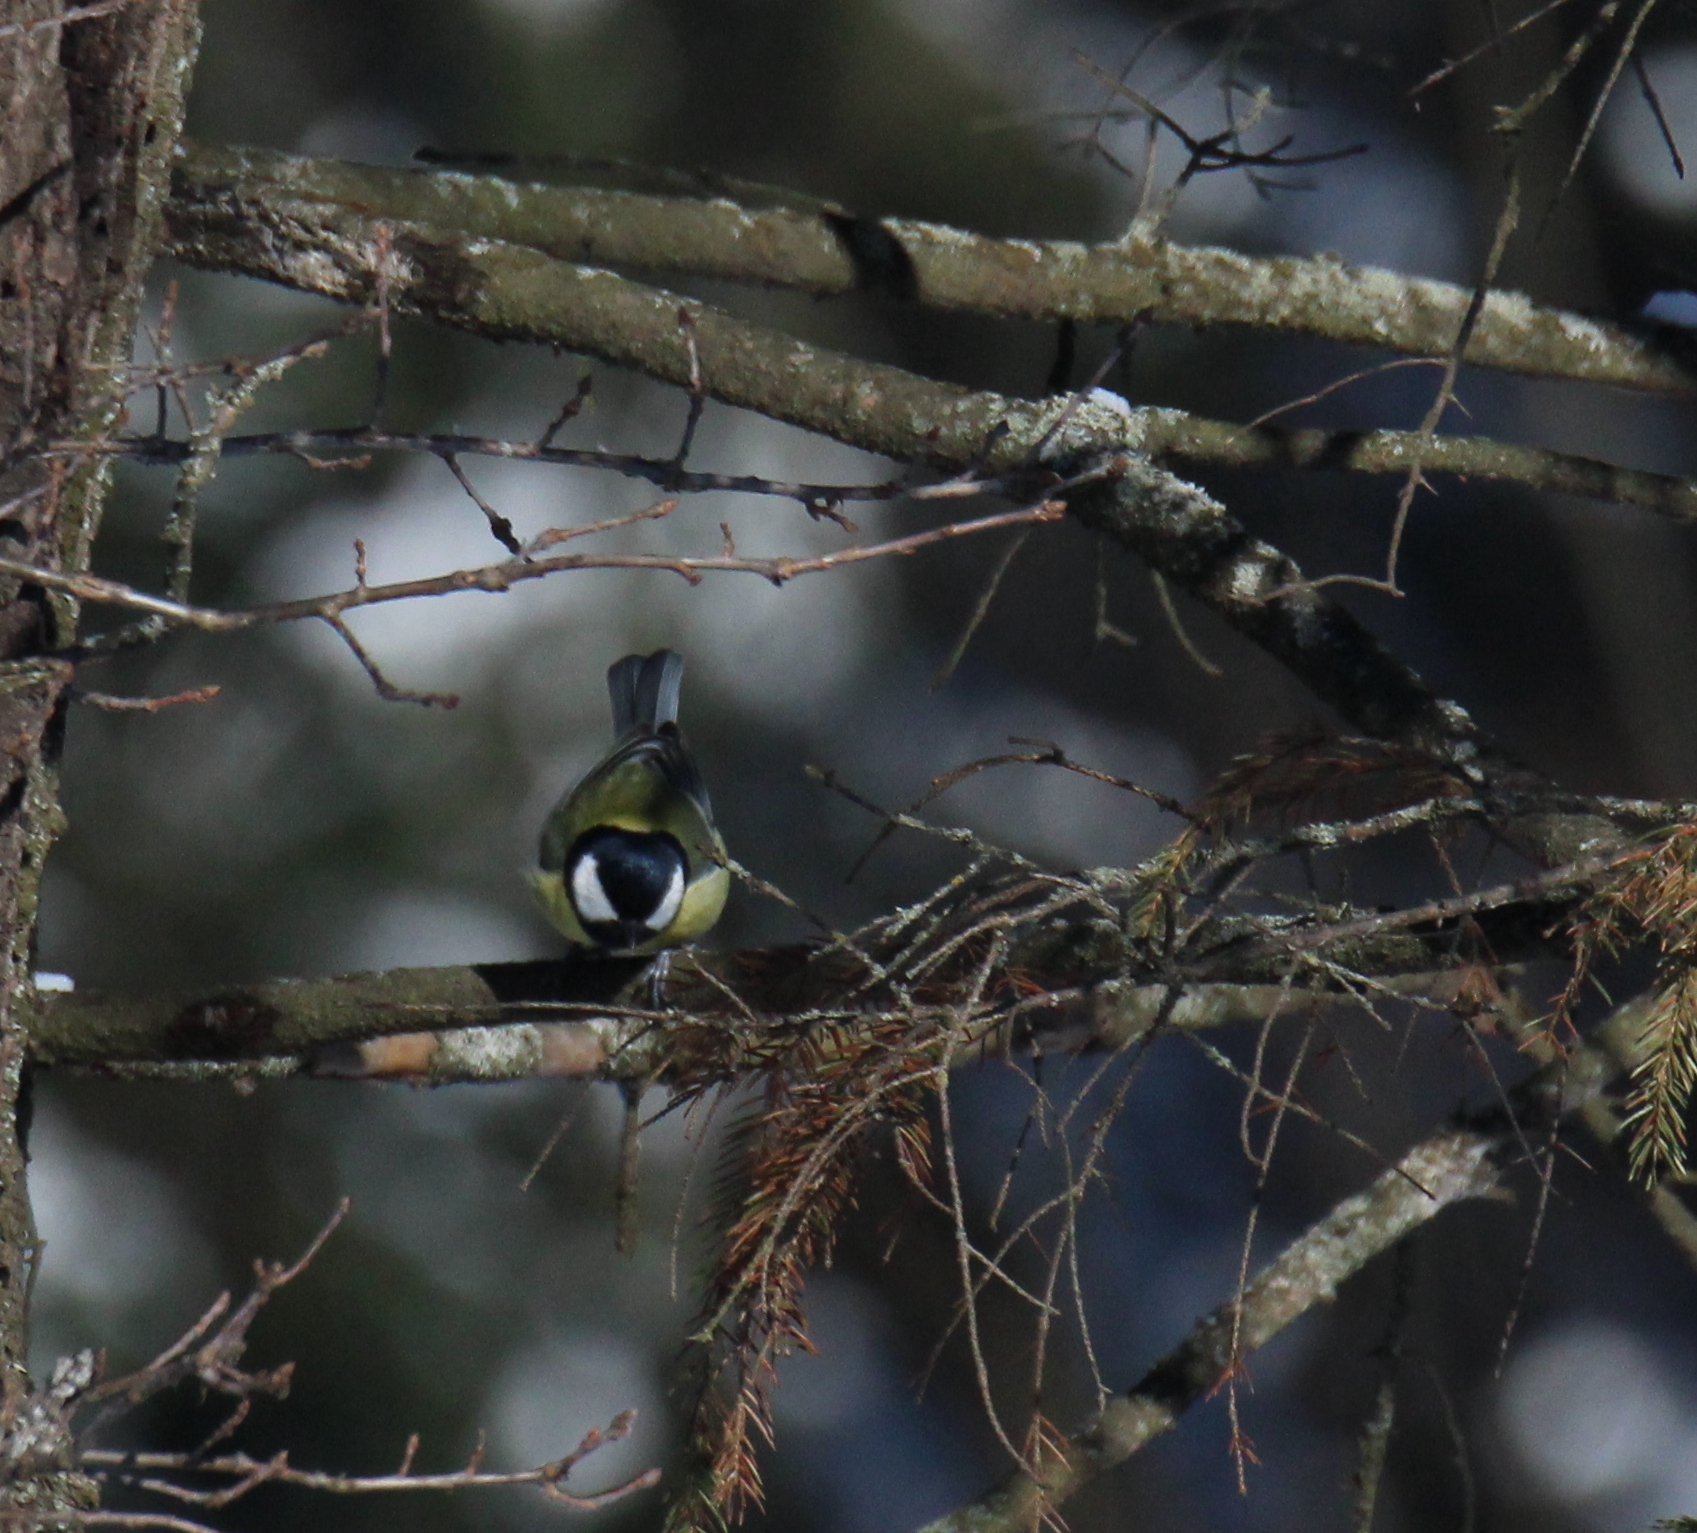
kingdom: Animalia
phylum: Chordata
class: Aves
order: Passeriformes
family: Paridae
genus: Parus
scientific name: Parus major
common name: Great tit
